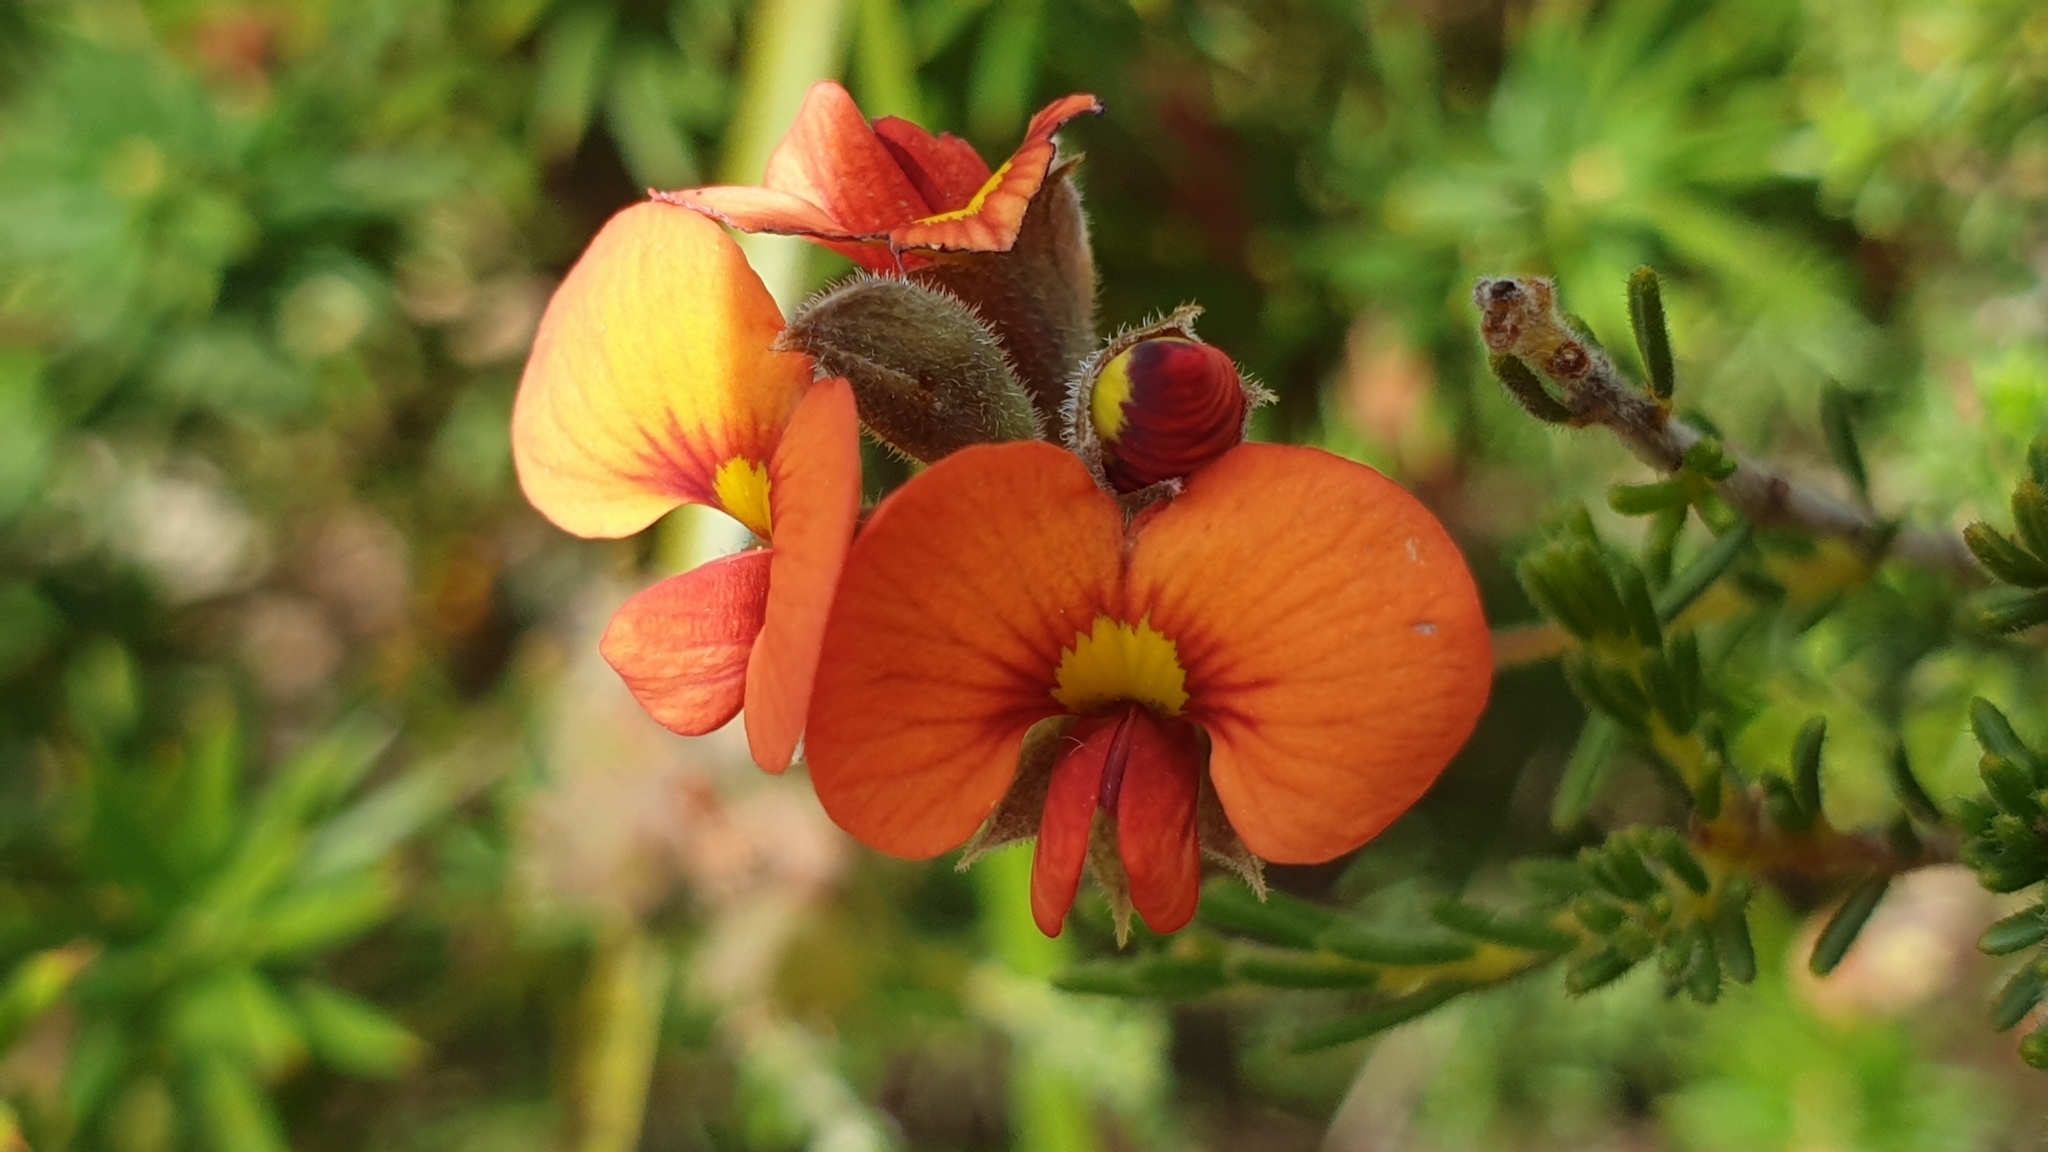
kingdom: Plantae
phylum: Tracheophyta
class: Magnoliopsida
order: Fabales
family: Fabaceae
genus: Dillwynia
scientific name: Dillwynia hispida
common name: Red parrot-pea
